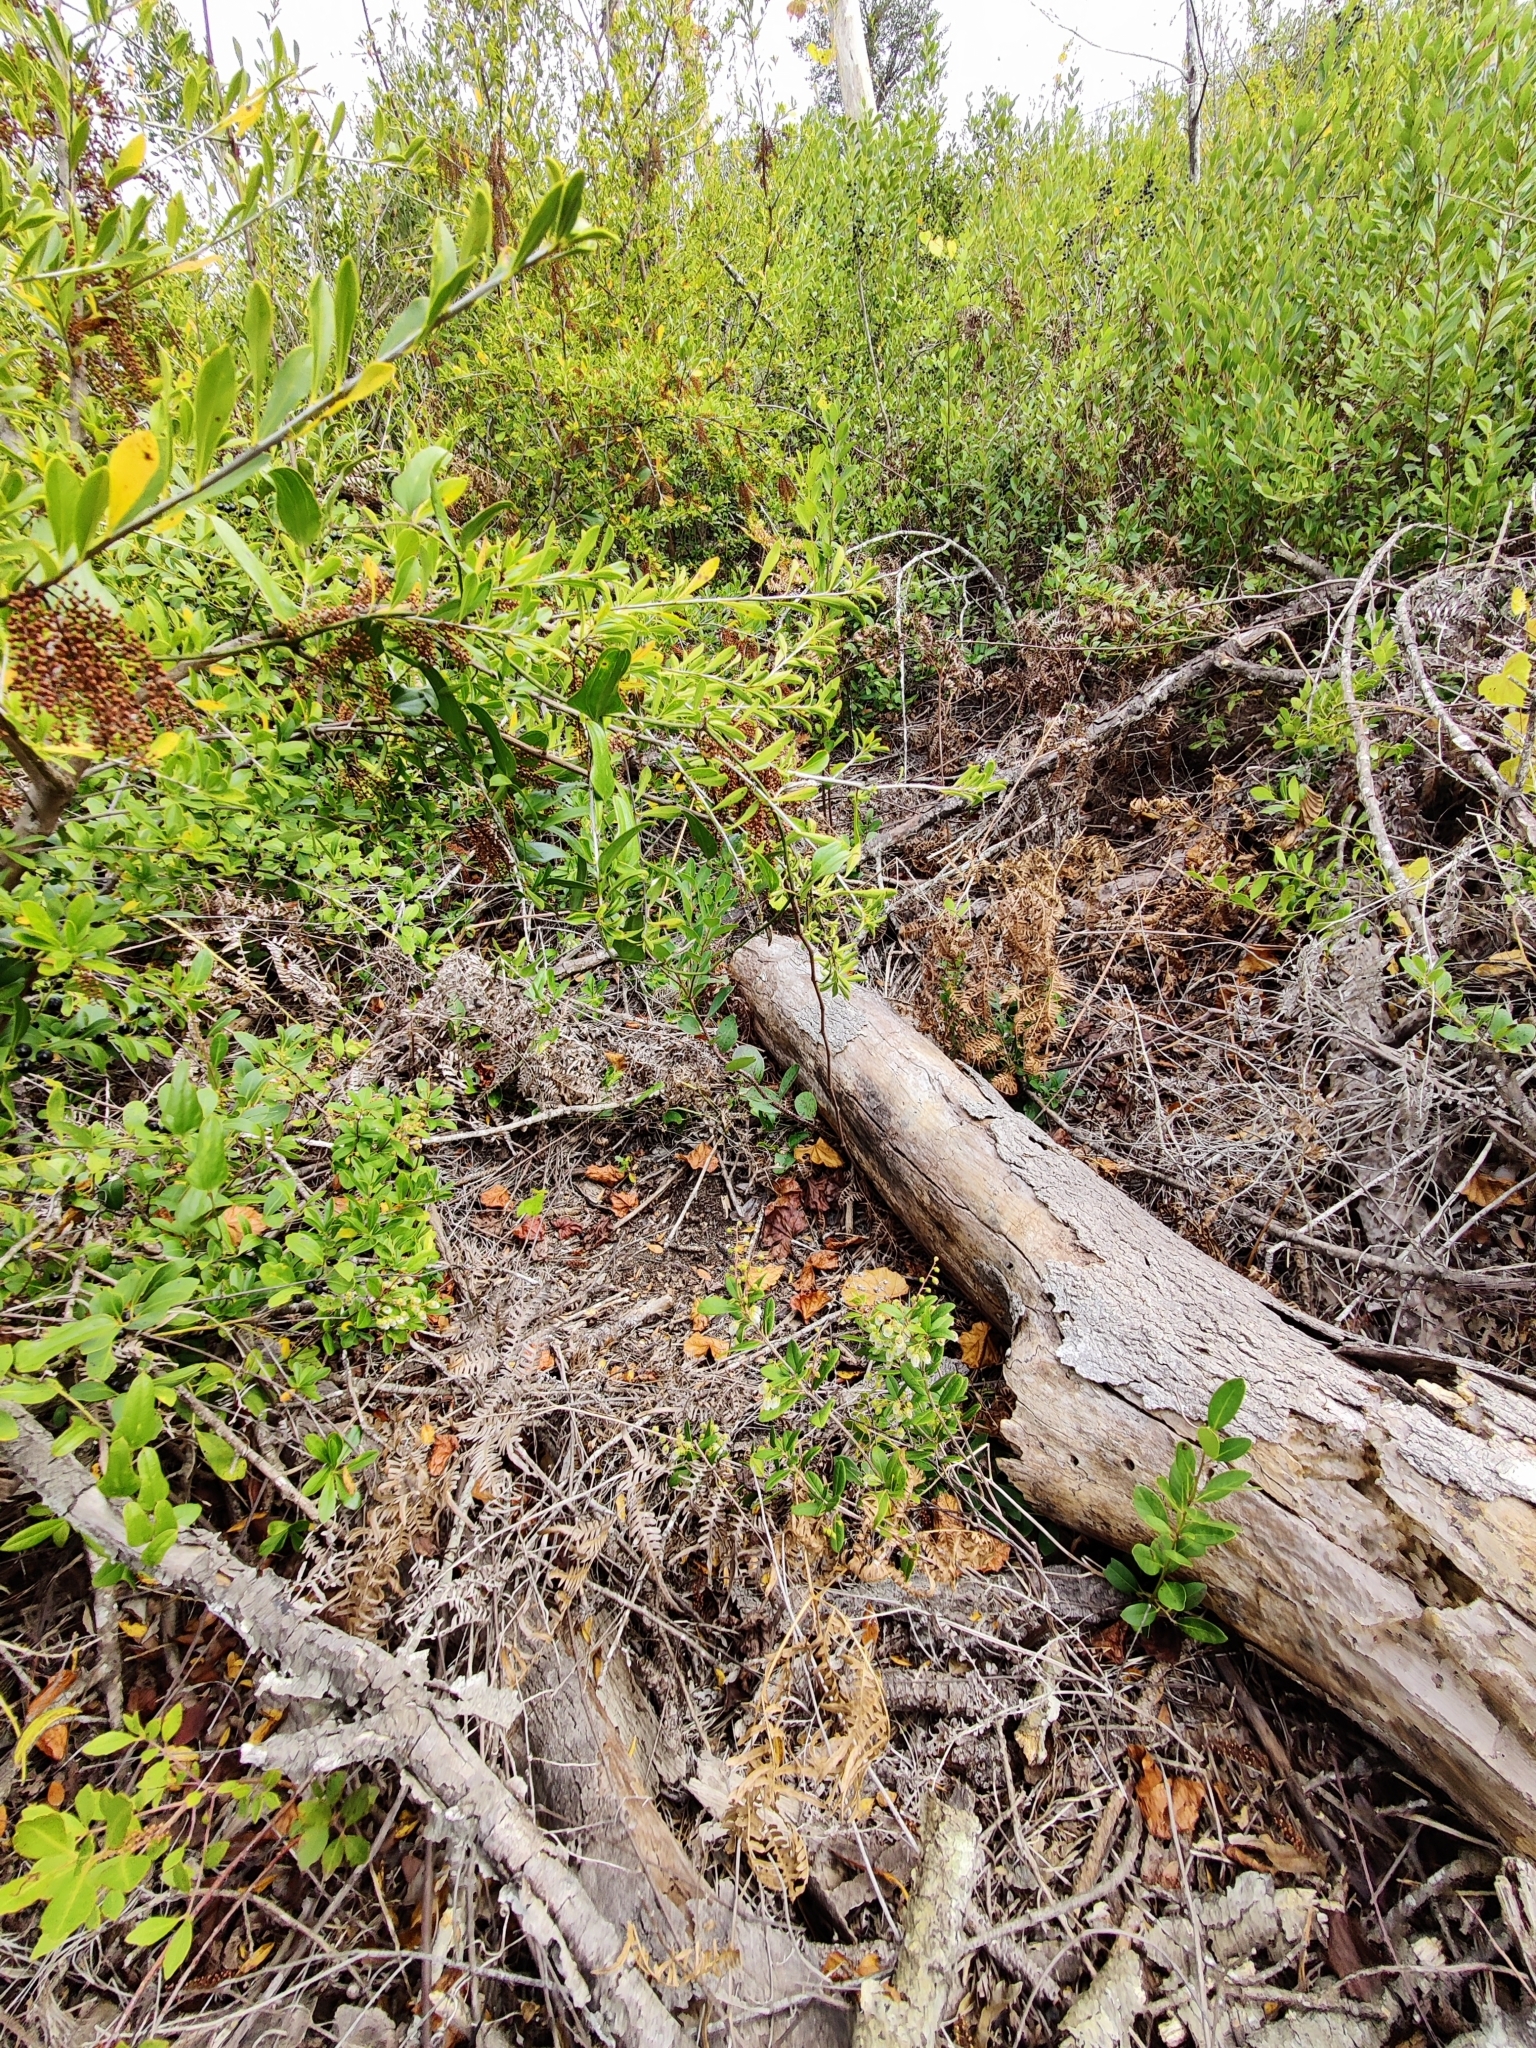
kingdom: Plantae
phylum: Tracheophyta
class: Magnoliopsida
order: Ericales
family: Ericaceae
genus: Pieris
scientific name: Pieris phillyreifolia
